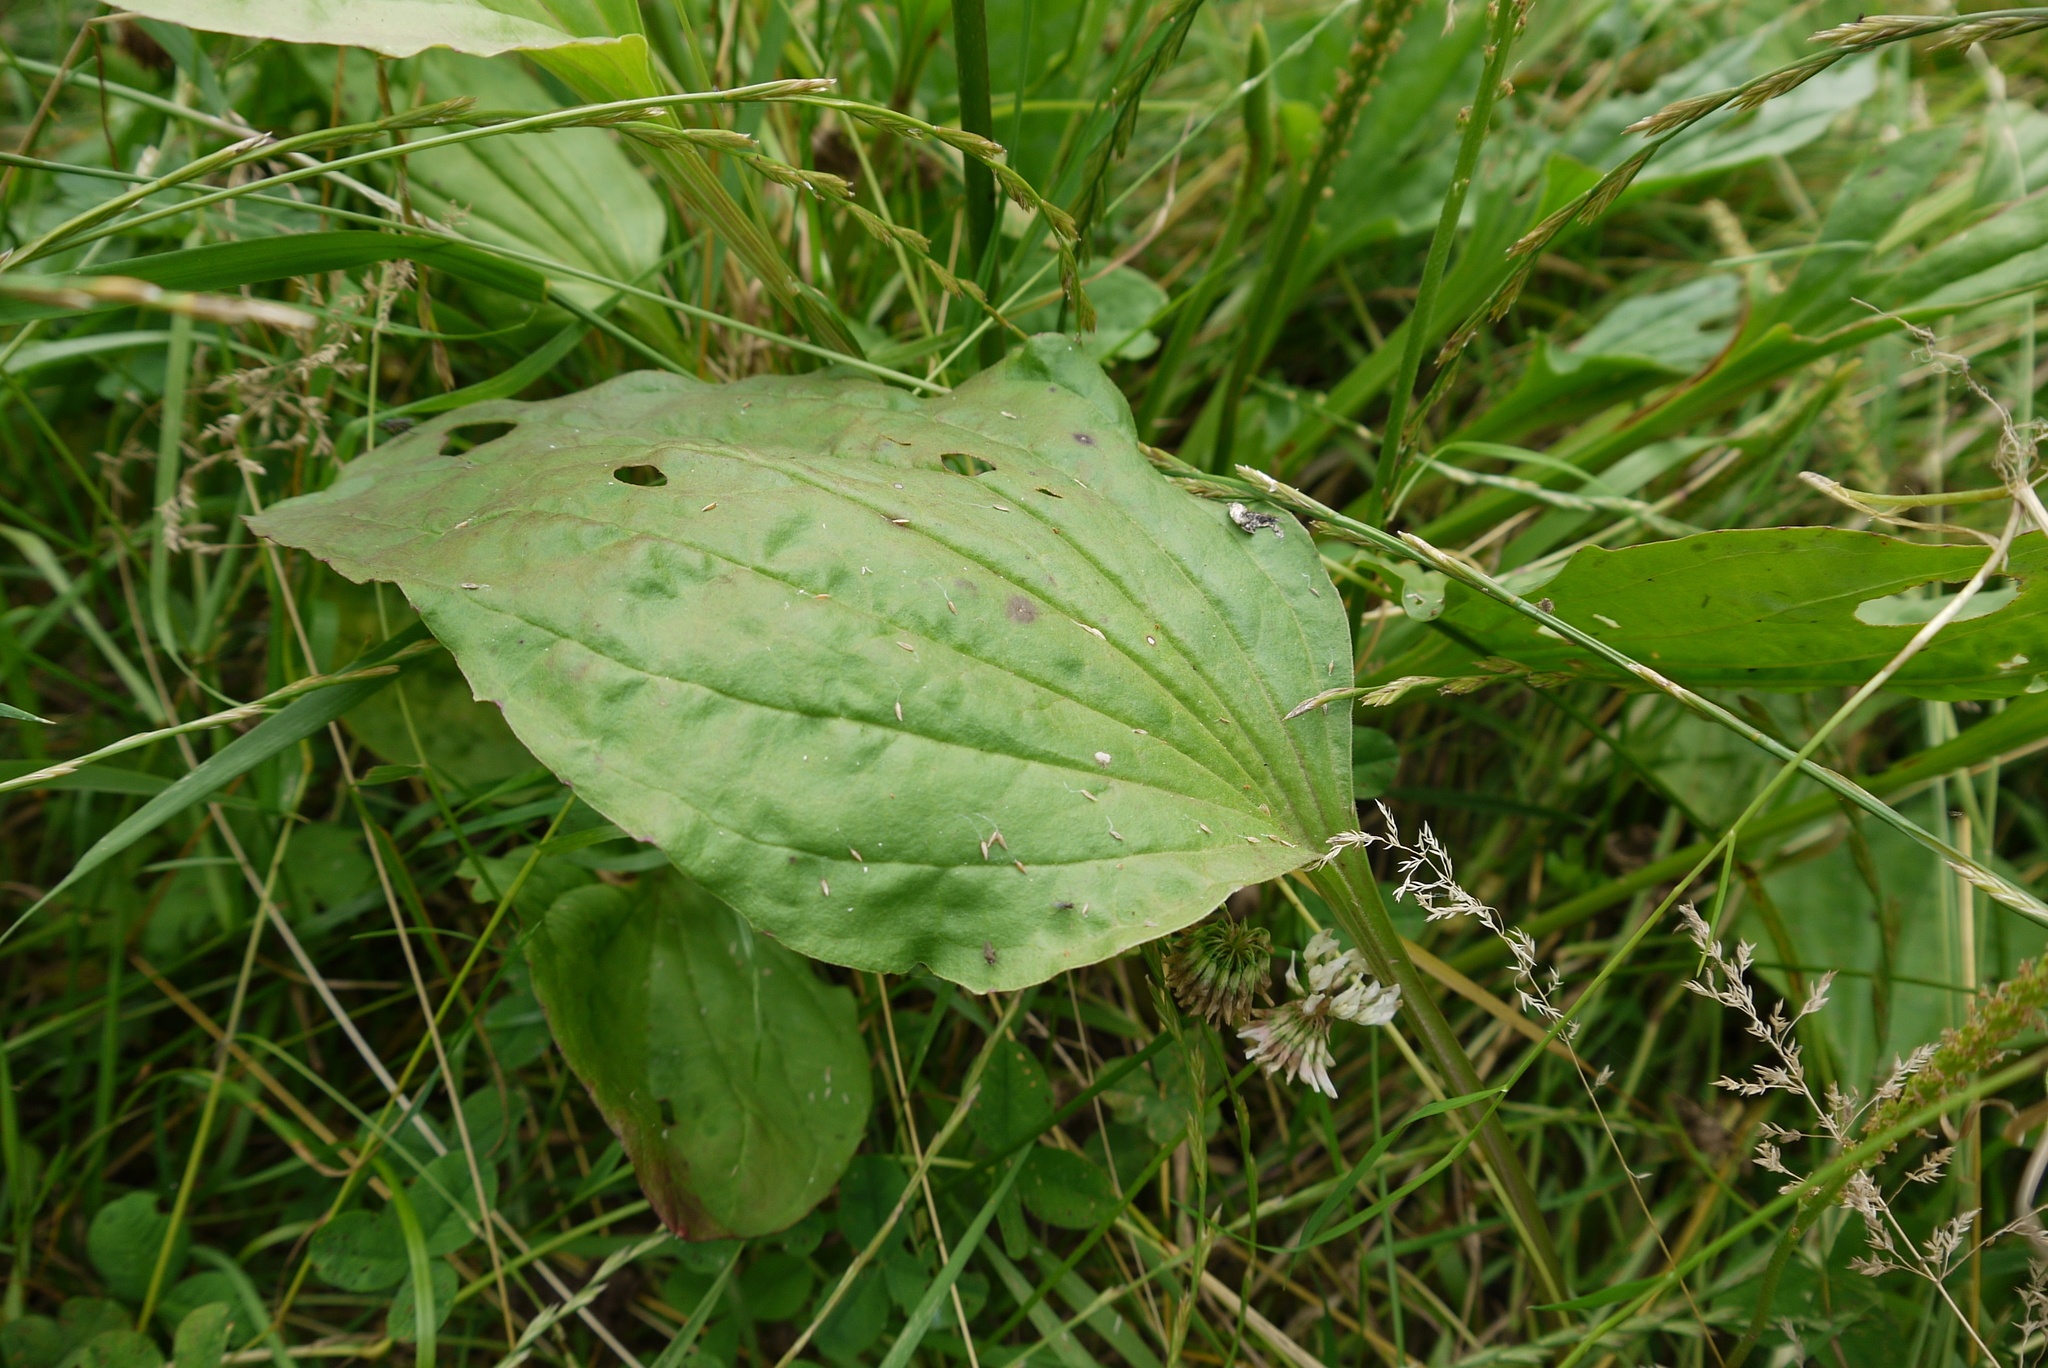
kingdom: Plantae
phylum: Tracheophyta
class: Magnoliopsida
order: Lamiales
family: Plantaginaceae
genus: Plantago
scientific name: Plantago major
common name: Common plantain
